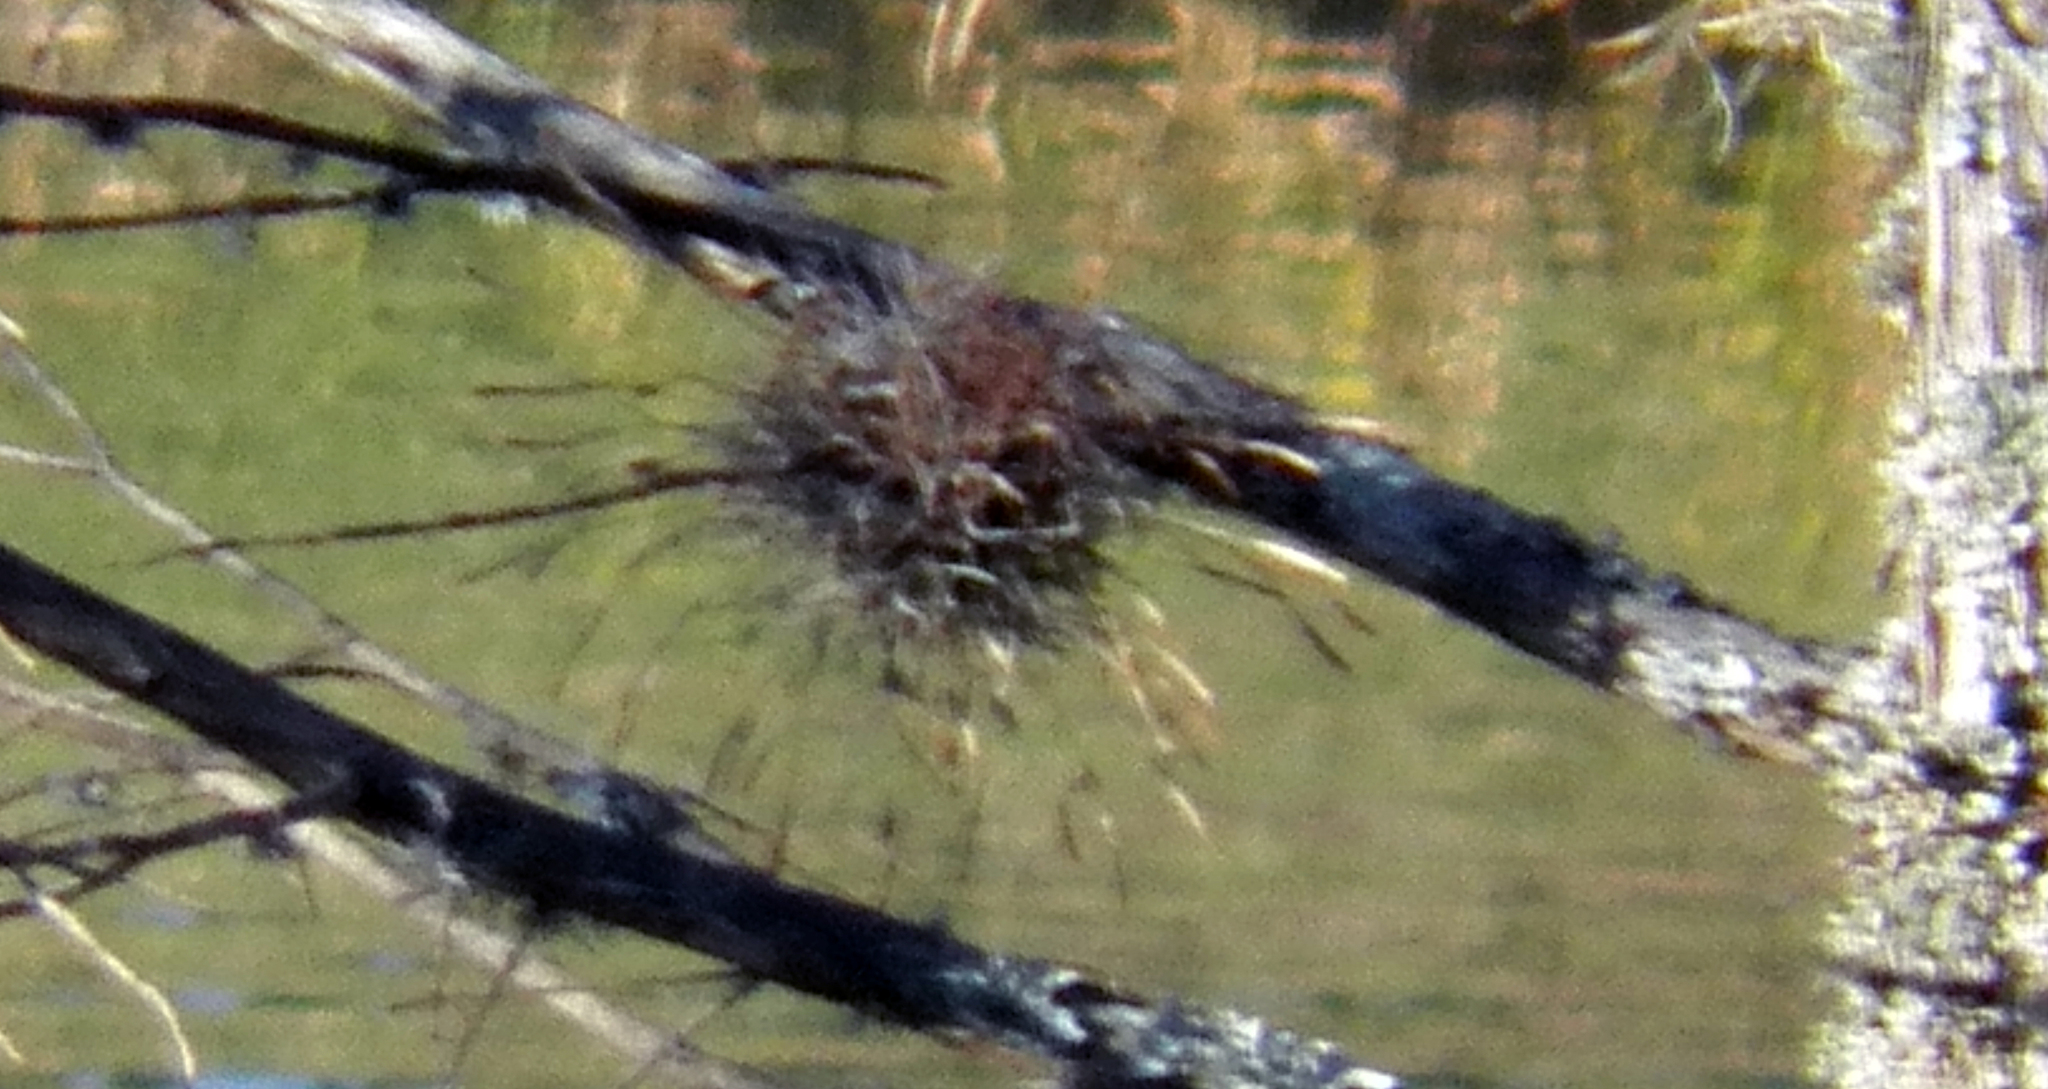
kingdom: Plantae
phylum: Tracheophyta
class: Liliopsida
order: Poales
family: Bromeliaceae
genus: Tillandsia
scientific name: Tillandsia recurvata
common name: Small ballmoss
